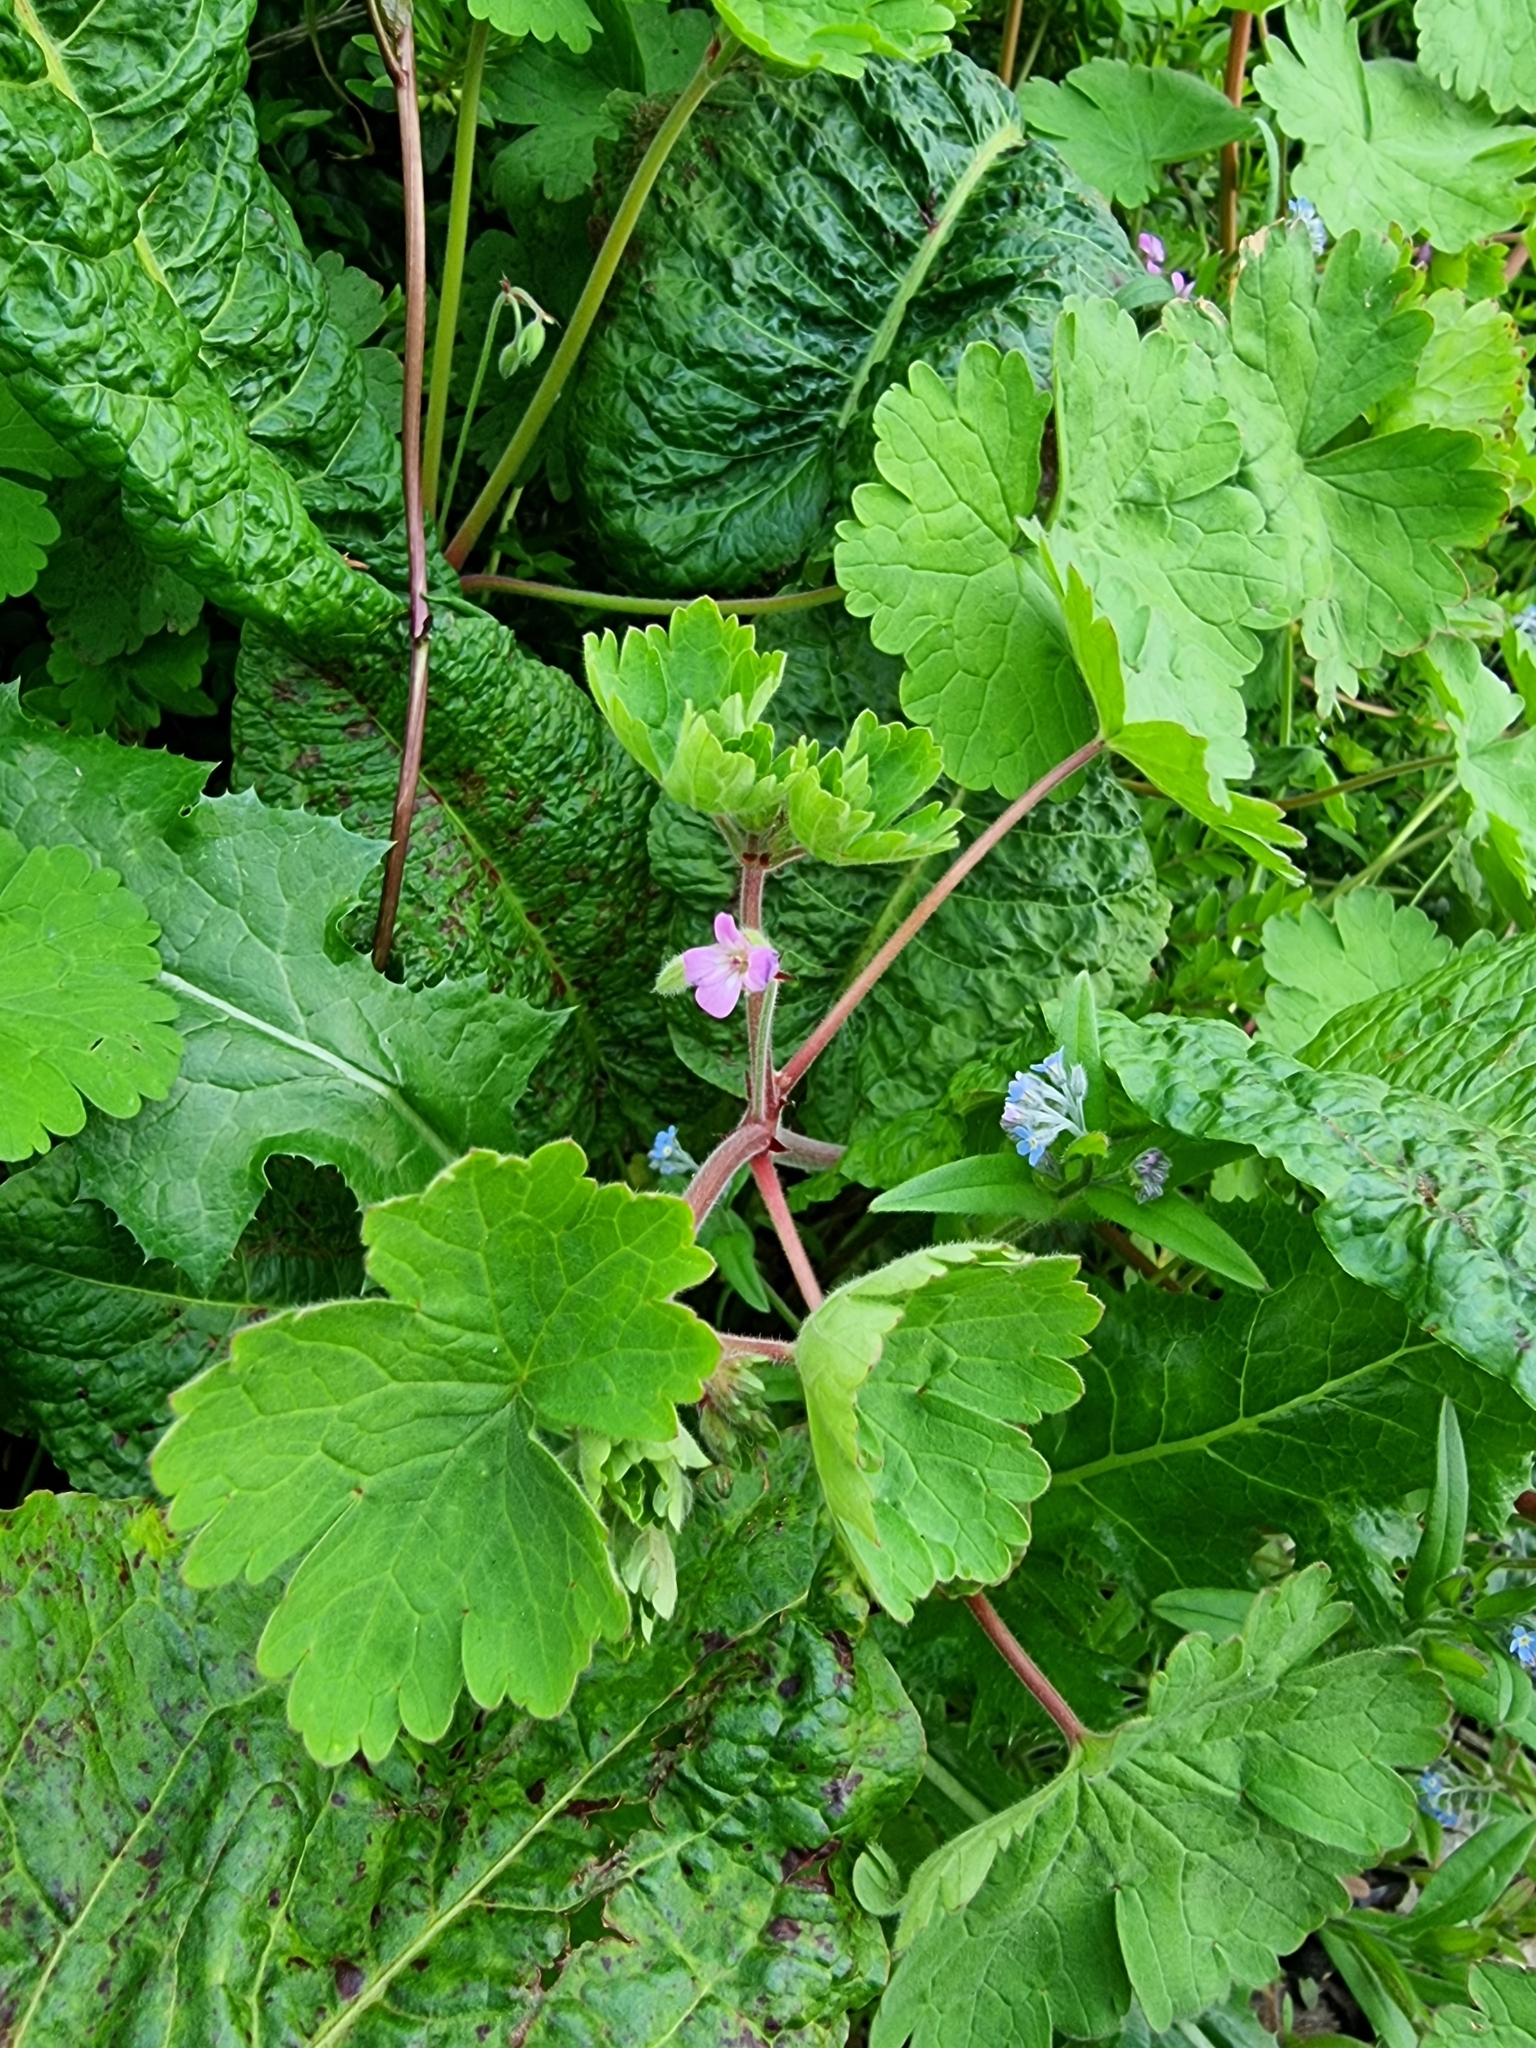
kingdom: Plantae
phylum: Tracheophyta
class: Magnoliopsida
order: Geraniales
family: Geraniaceae
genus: Geranium
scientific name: Geranium rotundifolium
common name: Round-leaved crane's-bill
